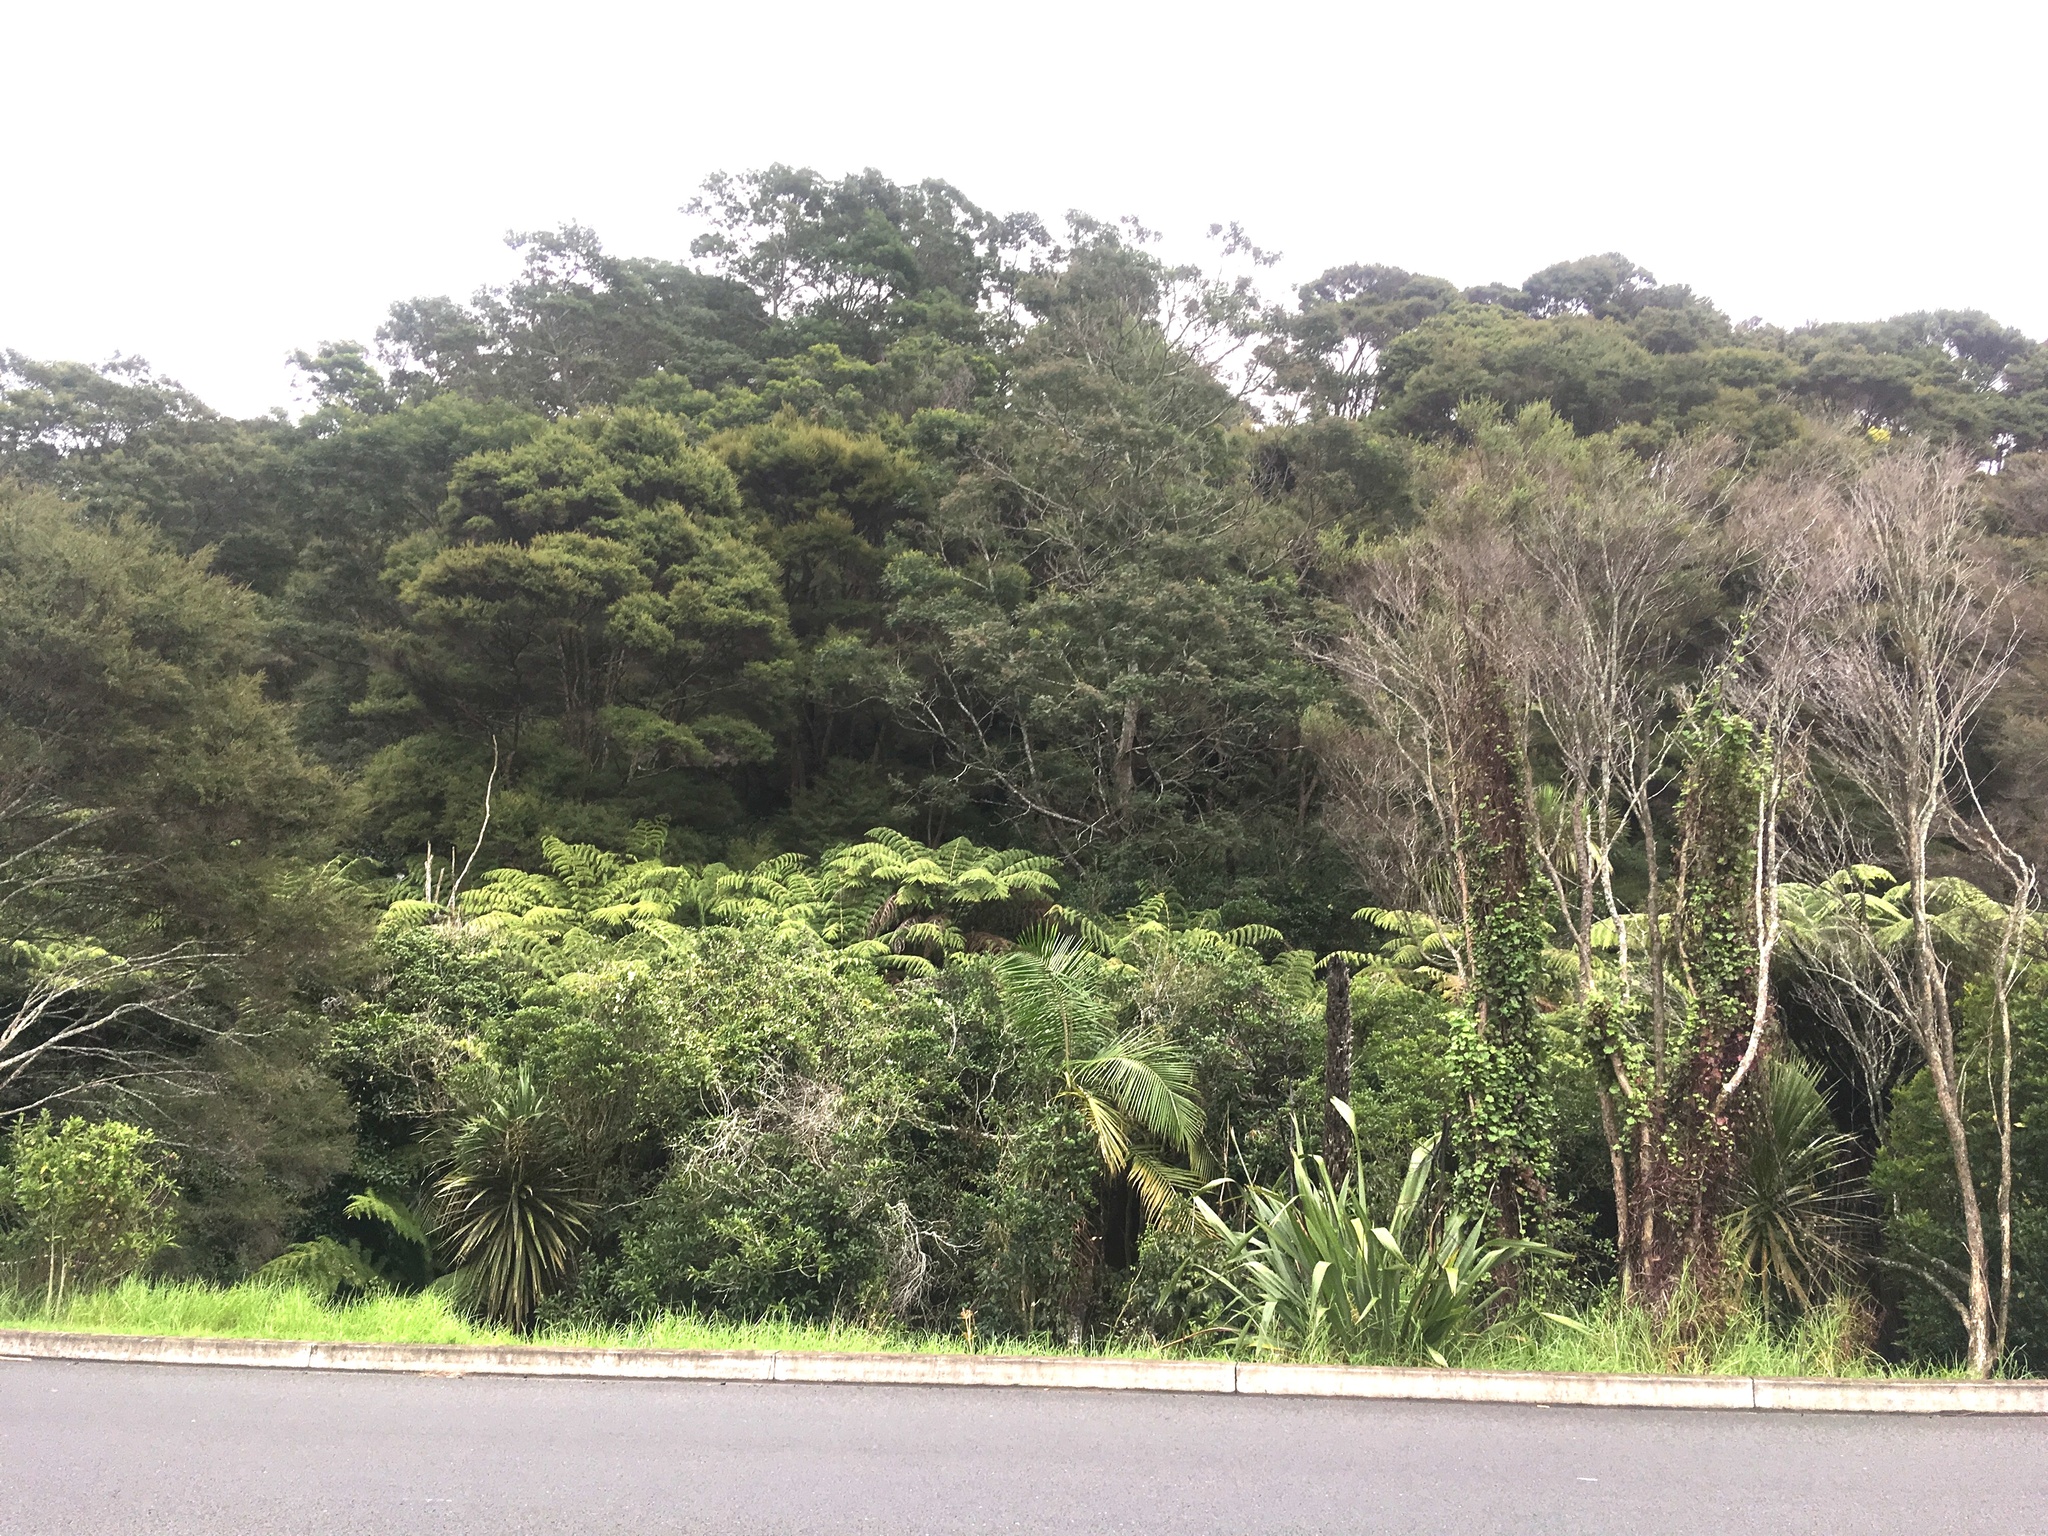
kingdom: Plantae
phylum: Tracheophyta
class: Magnoliopsida
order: Fabales
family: Fabaceae
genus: Paraserianthes
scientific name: Paraserianthes lophantha
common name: Plume albizia
